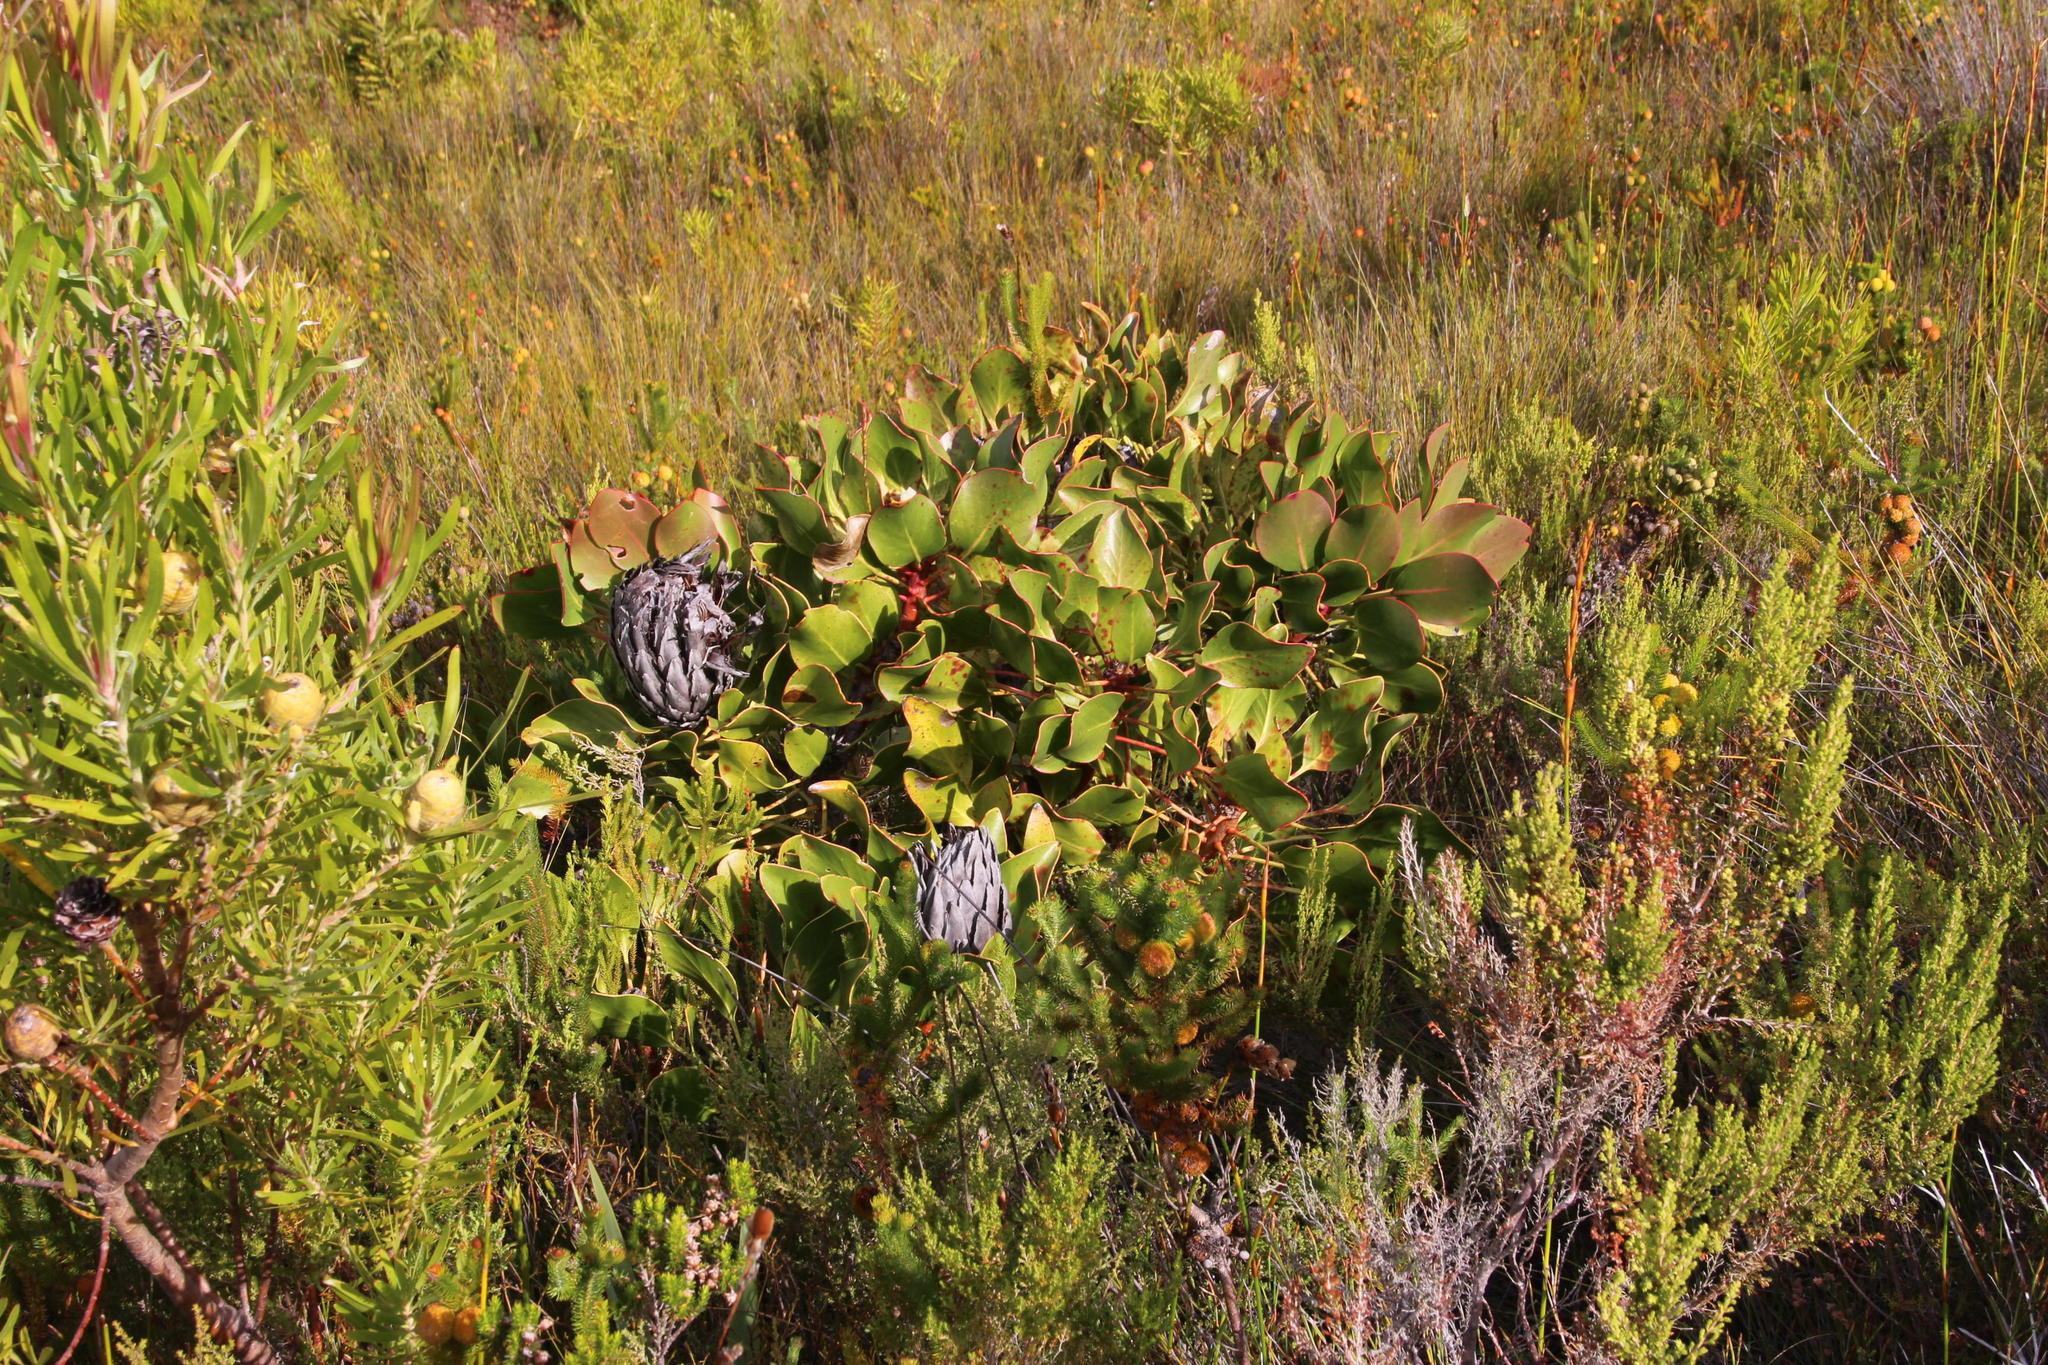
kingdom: Plantae
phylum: Tracheophyta
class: Magnoliopsida
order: Proteales
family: Proteaceae
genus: Protea
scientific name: Protea cynaroides
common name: King protea
